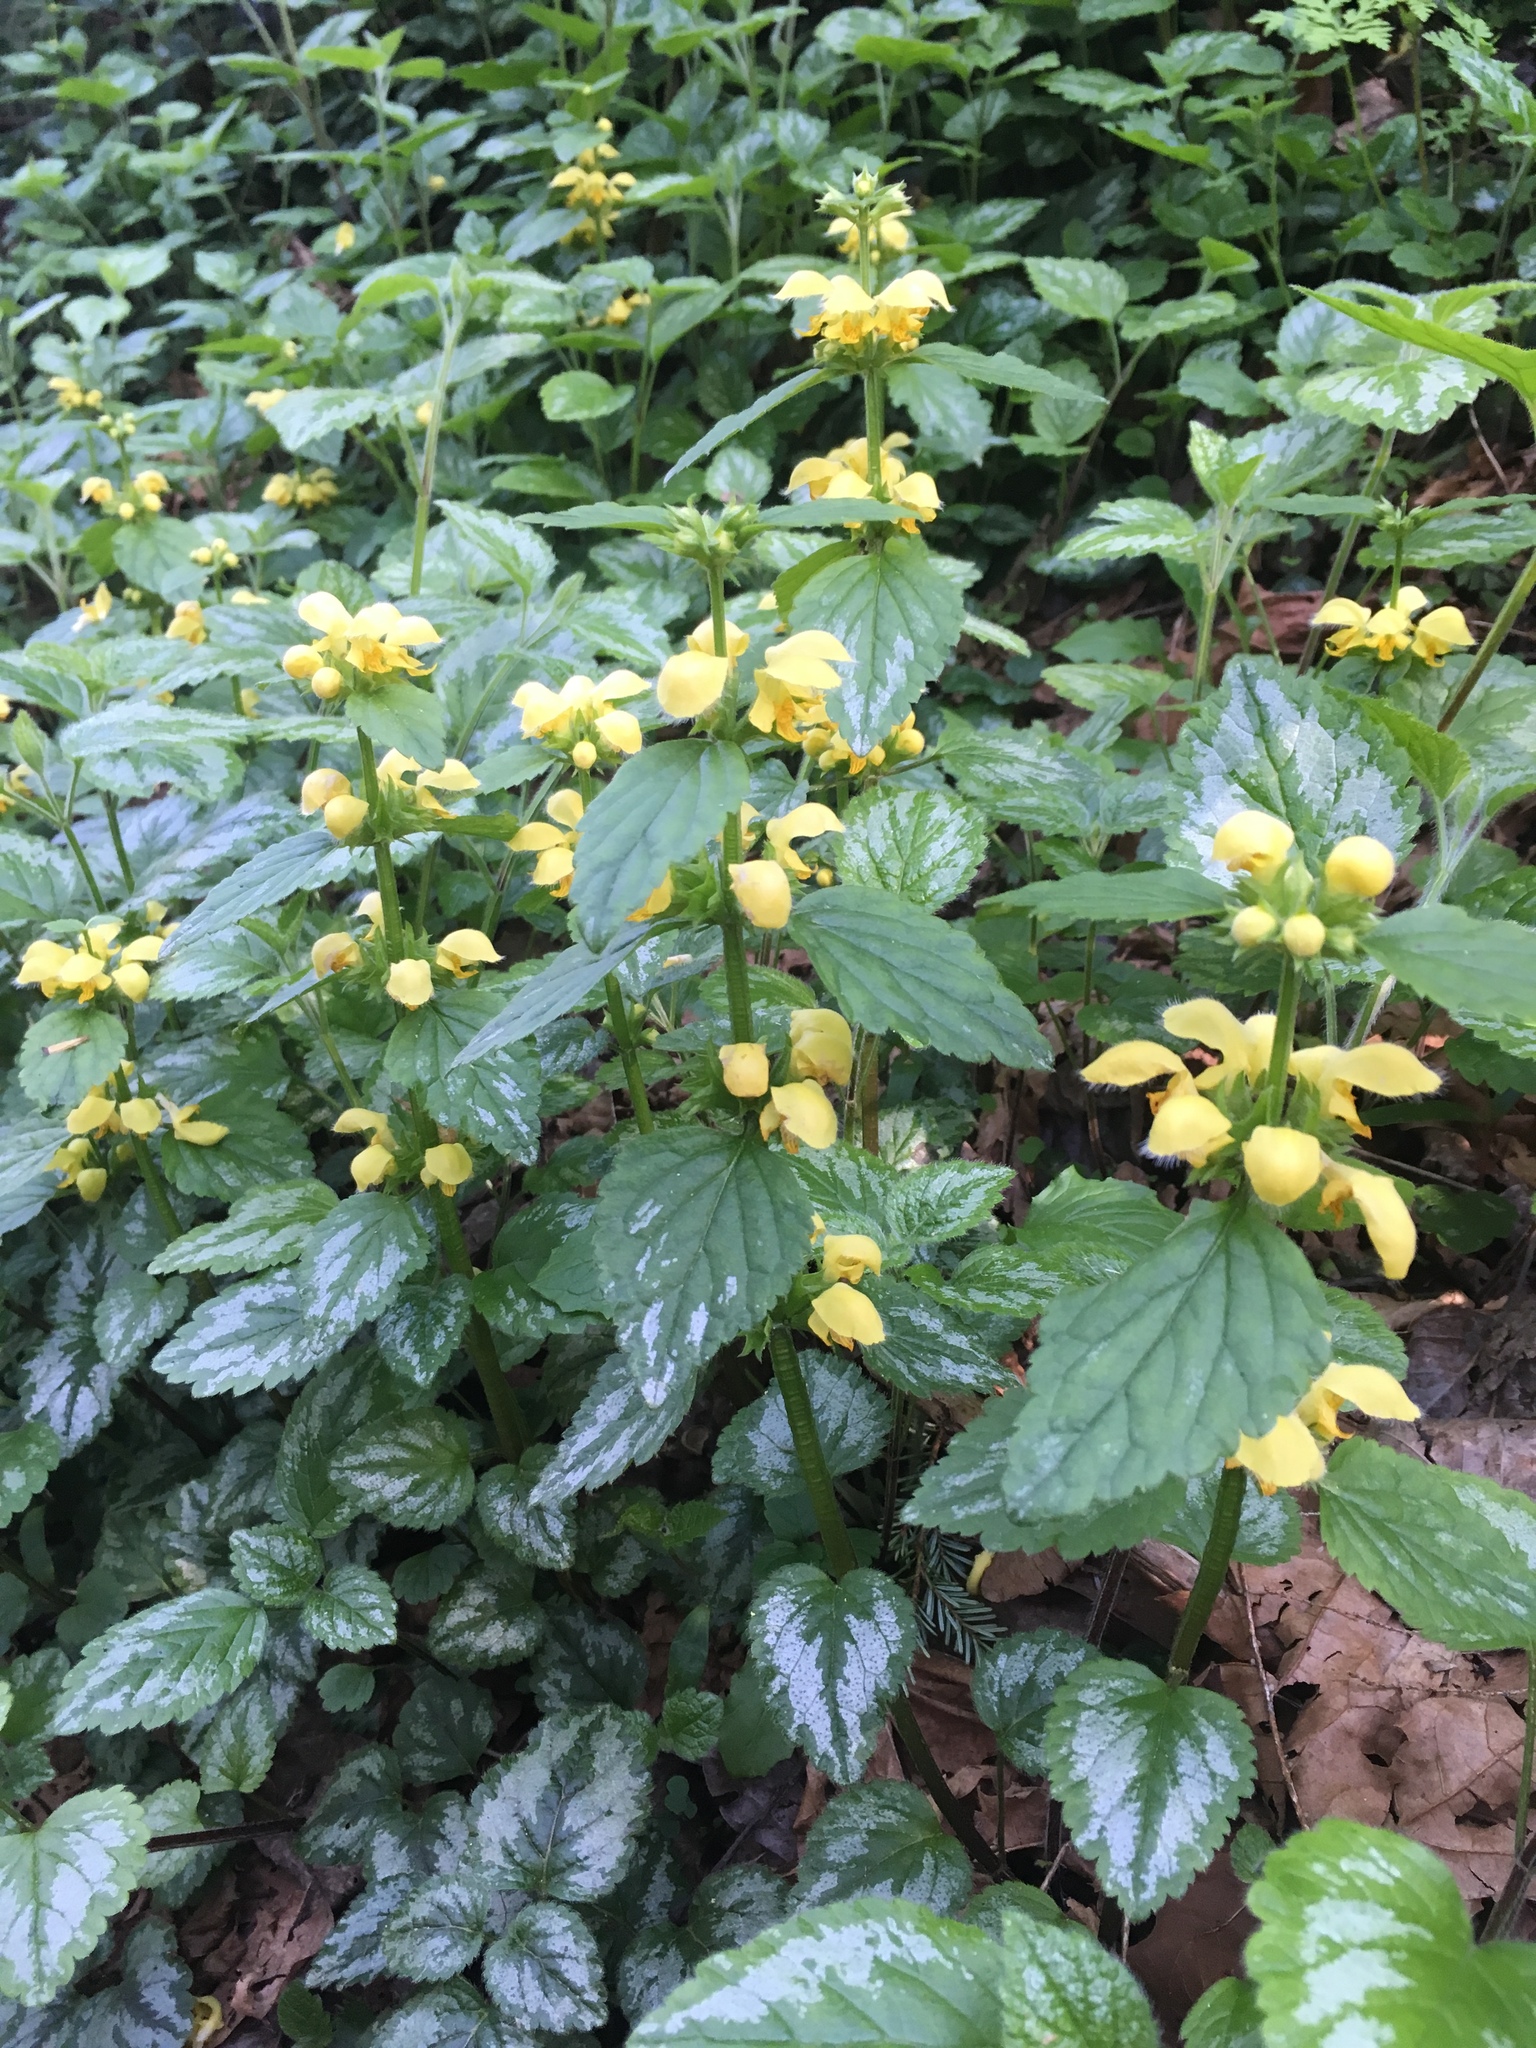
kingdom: Plantae
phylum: Tracheophyta
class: Magnoliopsida
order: Lamiales
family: Lamiaceae
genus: Lamium
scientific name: Lamium galeobdolon
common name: Yellow archangel
